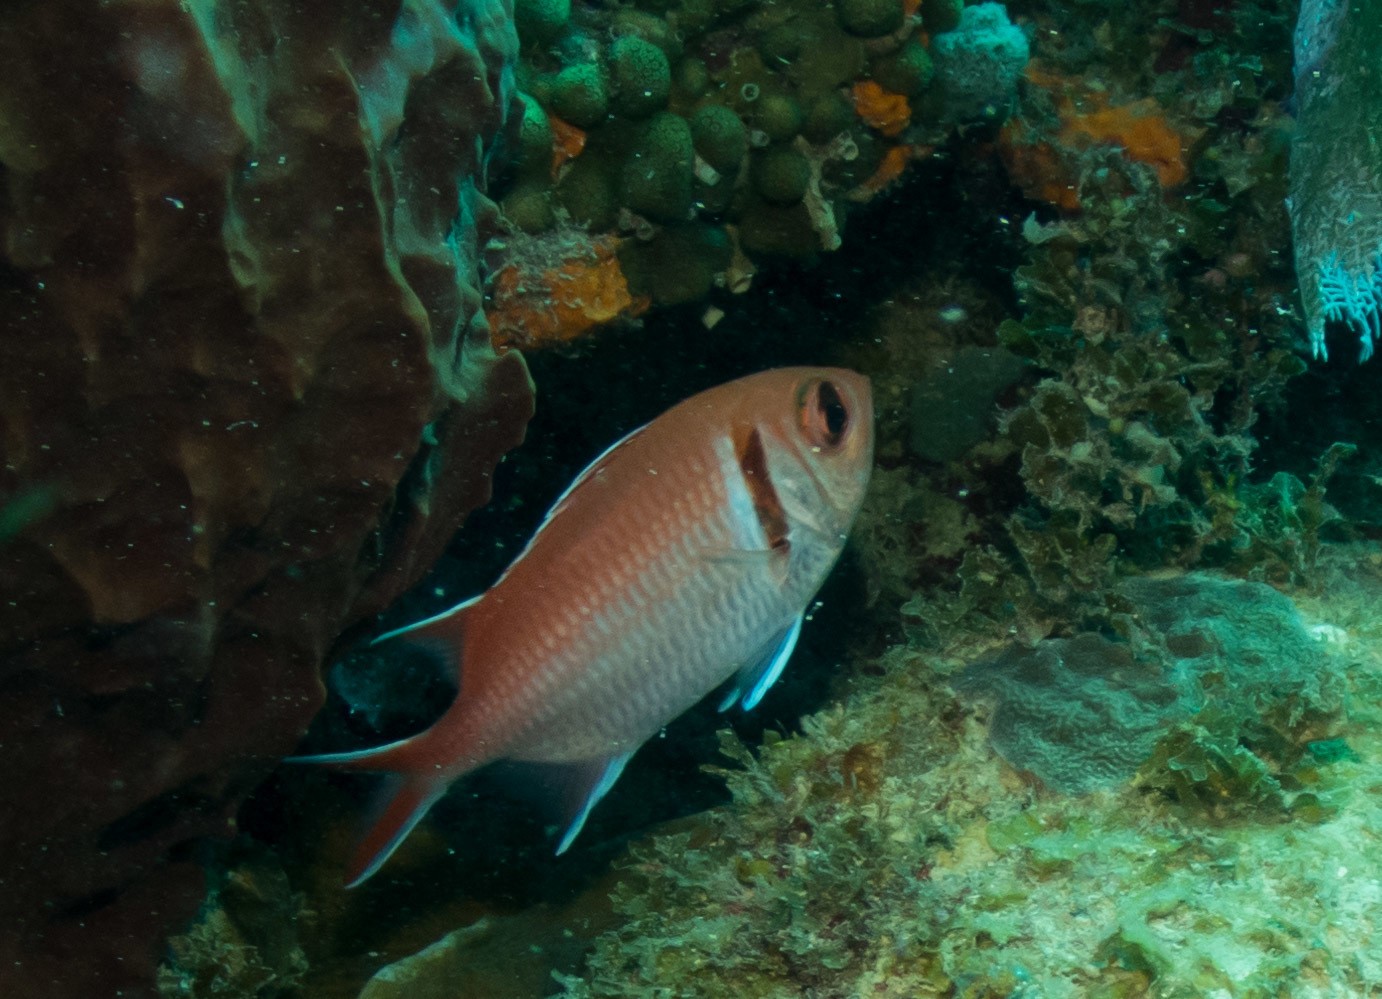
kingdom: Animalia
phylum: Chordata
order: Beryciformes
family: Holocentridae
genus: Myripristis
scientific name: Myripristis jacobus
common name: Blackbar soldierfish
